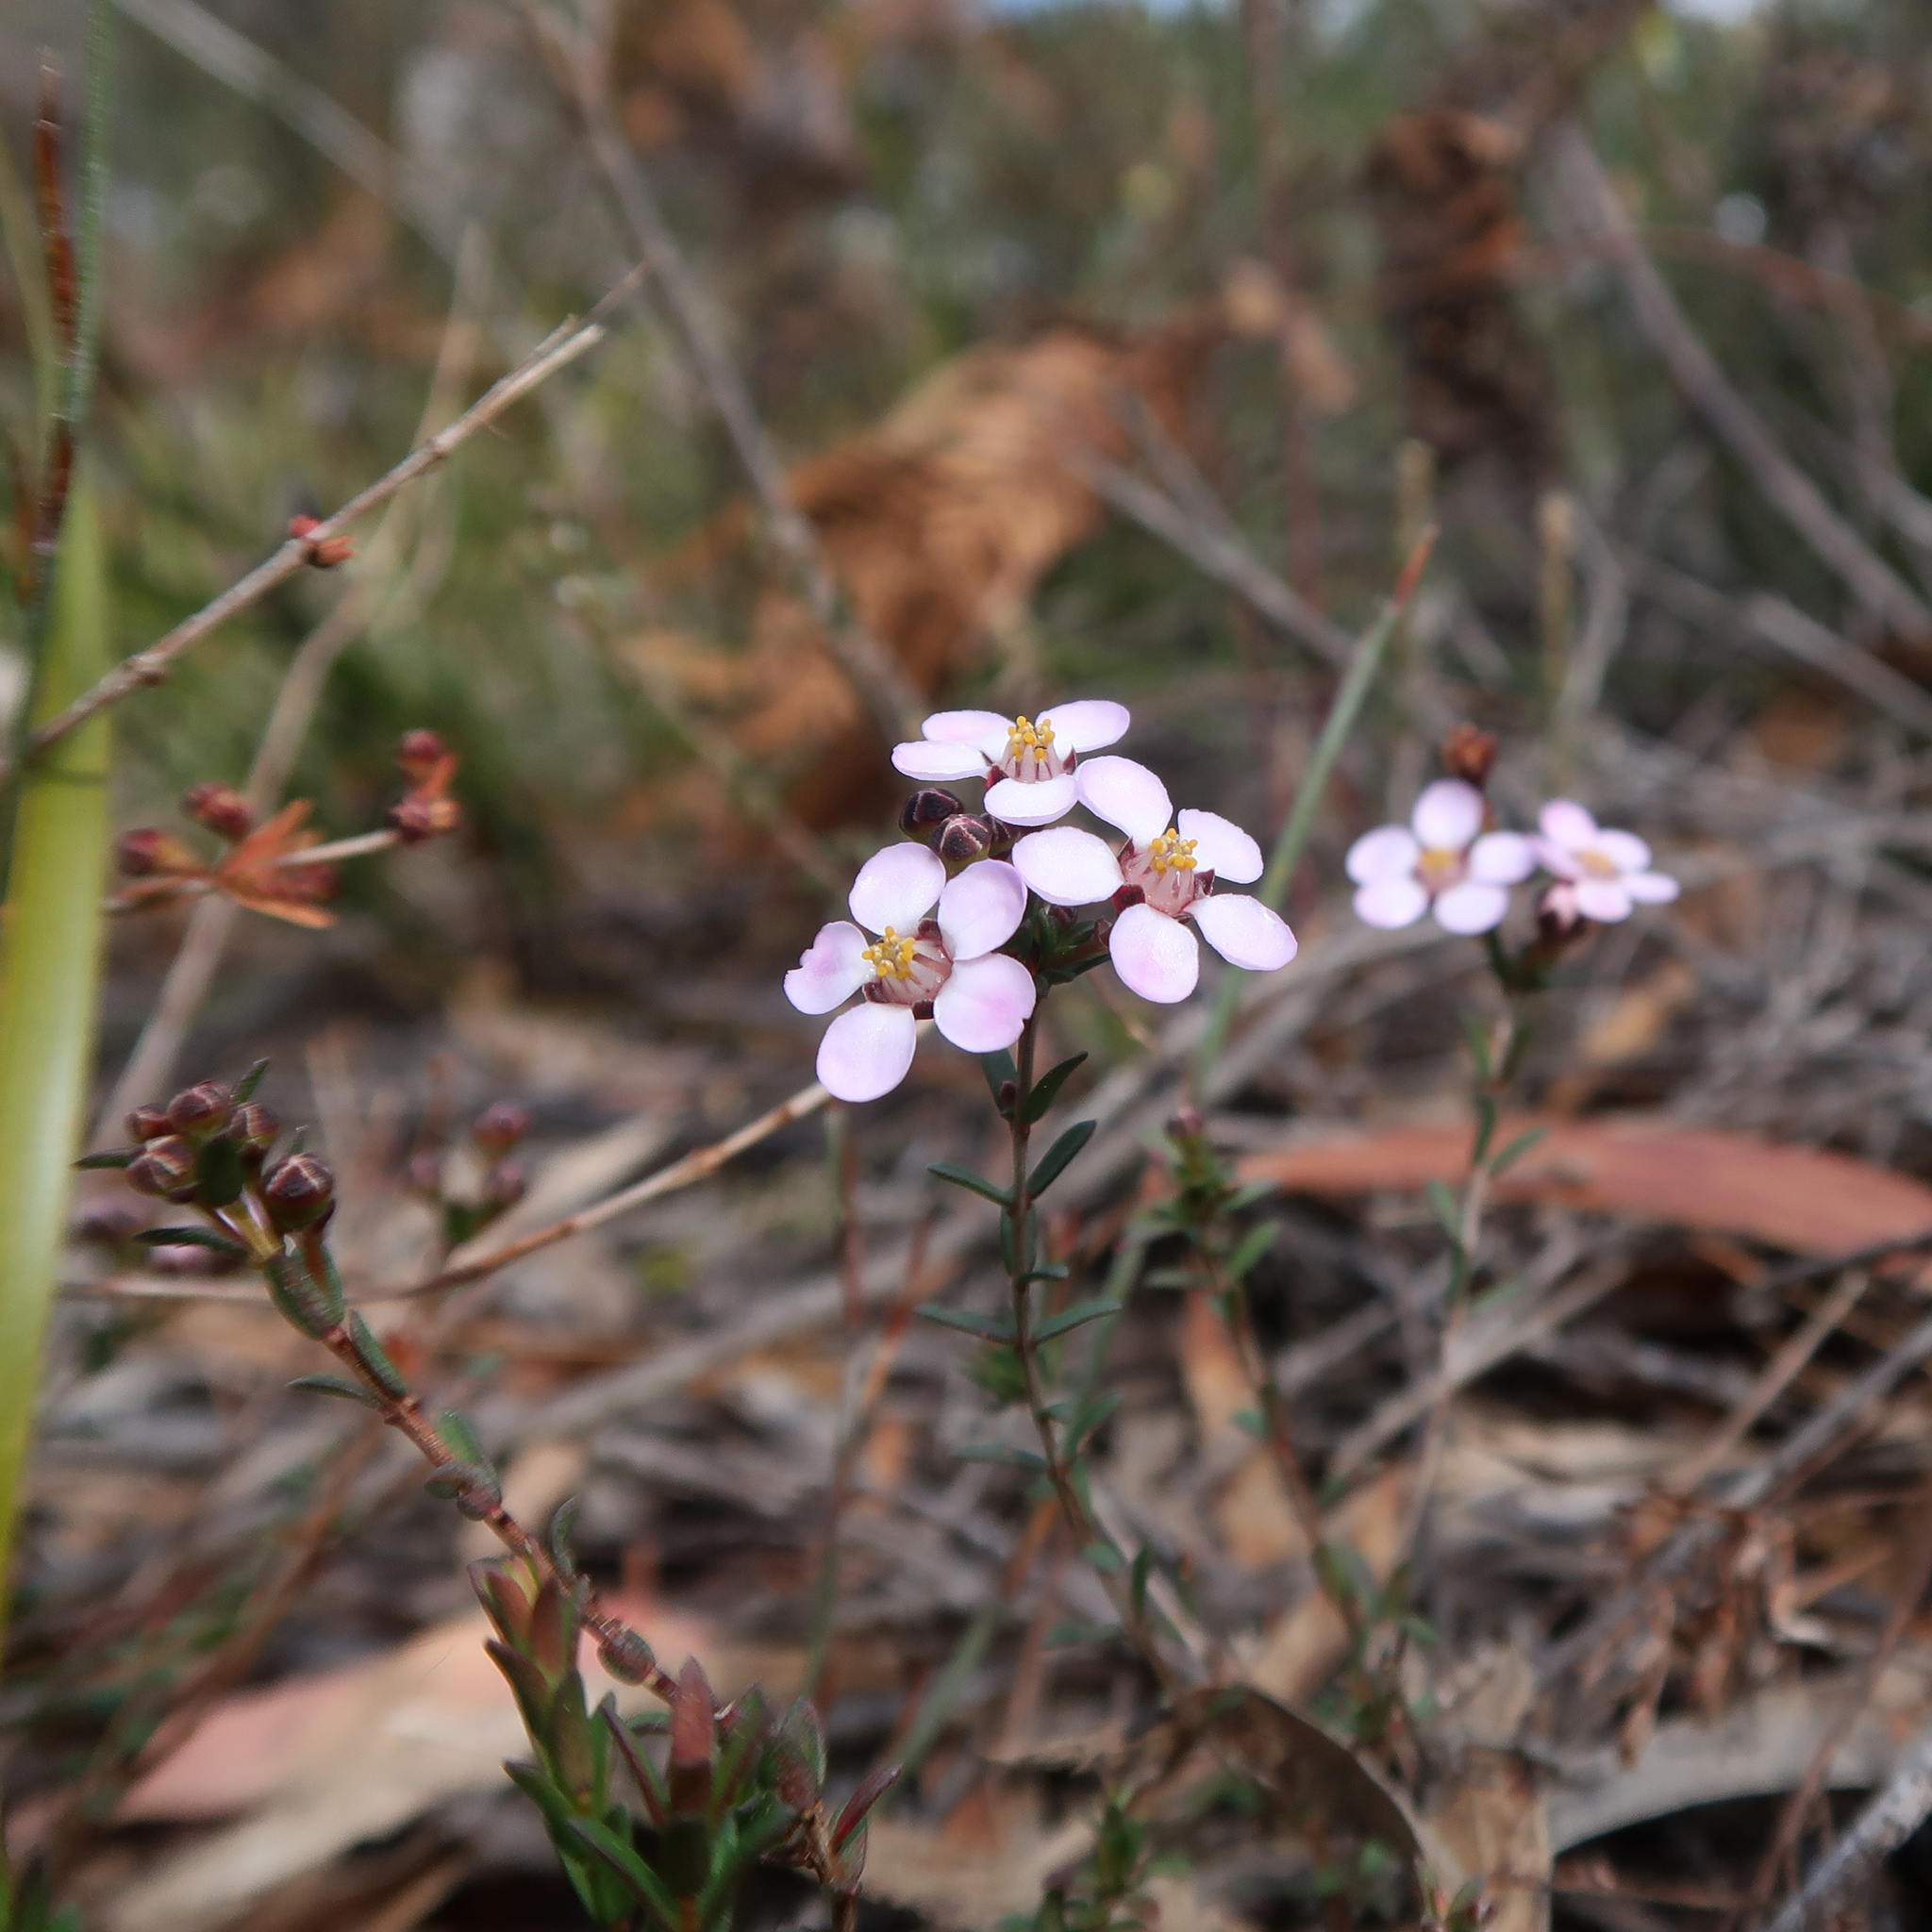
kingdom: Plantae
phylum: Tracheophyta
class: Magnoliopsida
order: Myrtales
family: Myrtaceae
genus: Euryomyrtus
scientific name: Euryomyrtus ramosissima
